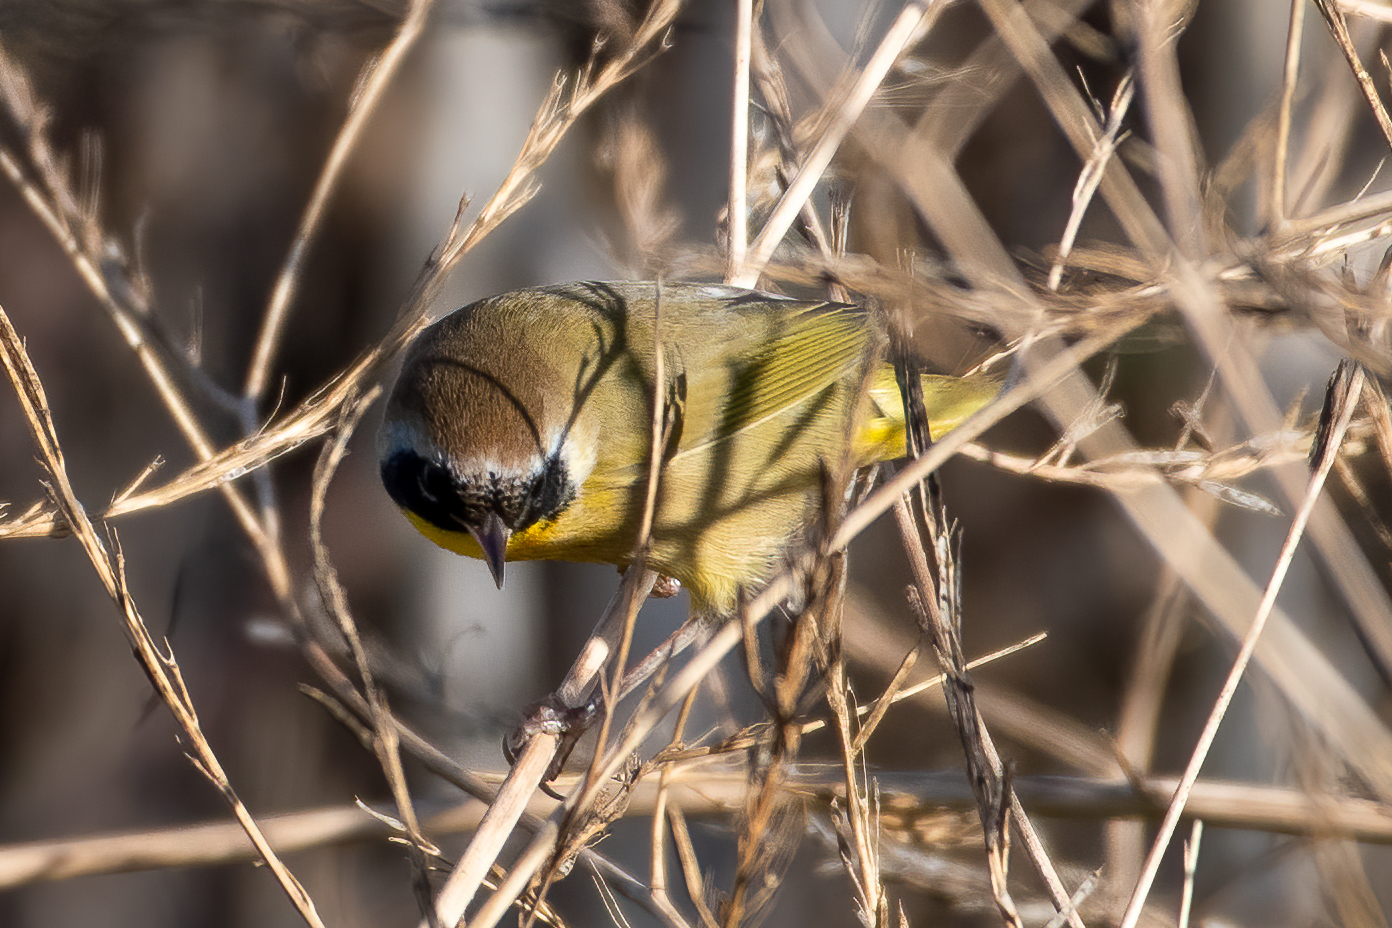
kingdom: Animalia
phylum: Chordata
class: Aves
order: Passeriformes
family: Parulidae
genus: Geothlypis
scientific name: Geothlypis trichas
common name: Common yellowthroat
